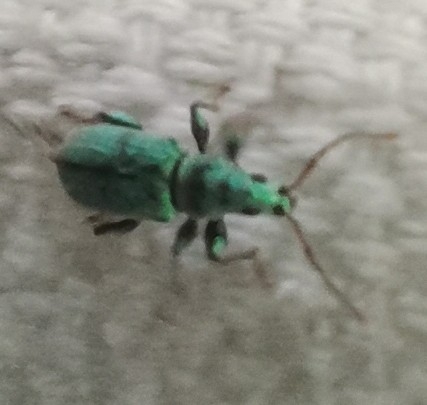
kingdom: Animalia
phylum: Arthropoda
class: Insecta
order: Coleoptera
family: Curculionidae
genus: Phyllobius
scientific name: Phyllobius argentatus
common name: Silver-green leaf weevil
